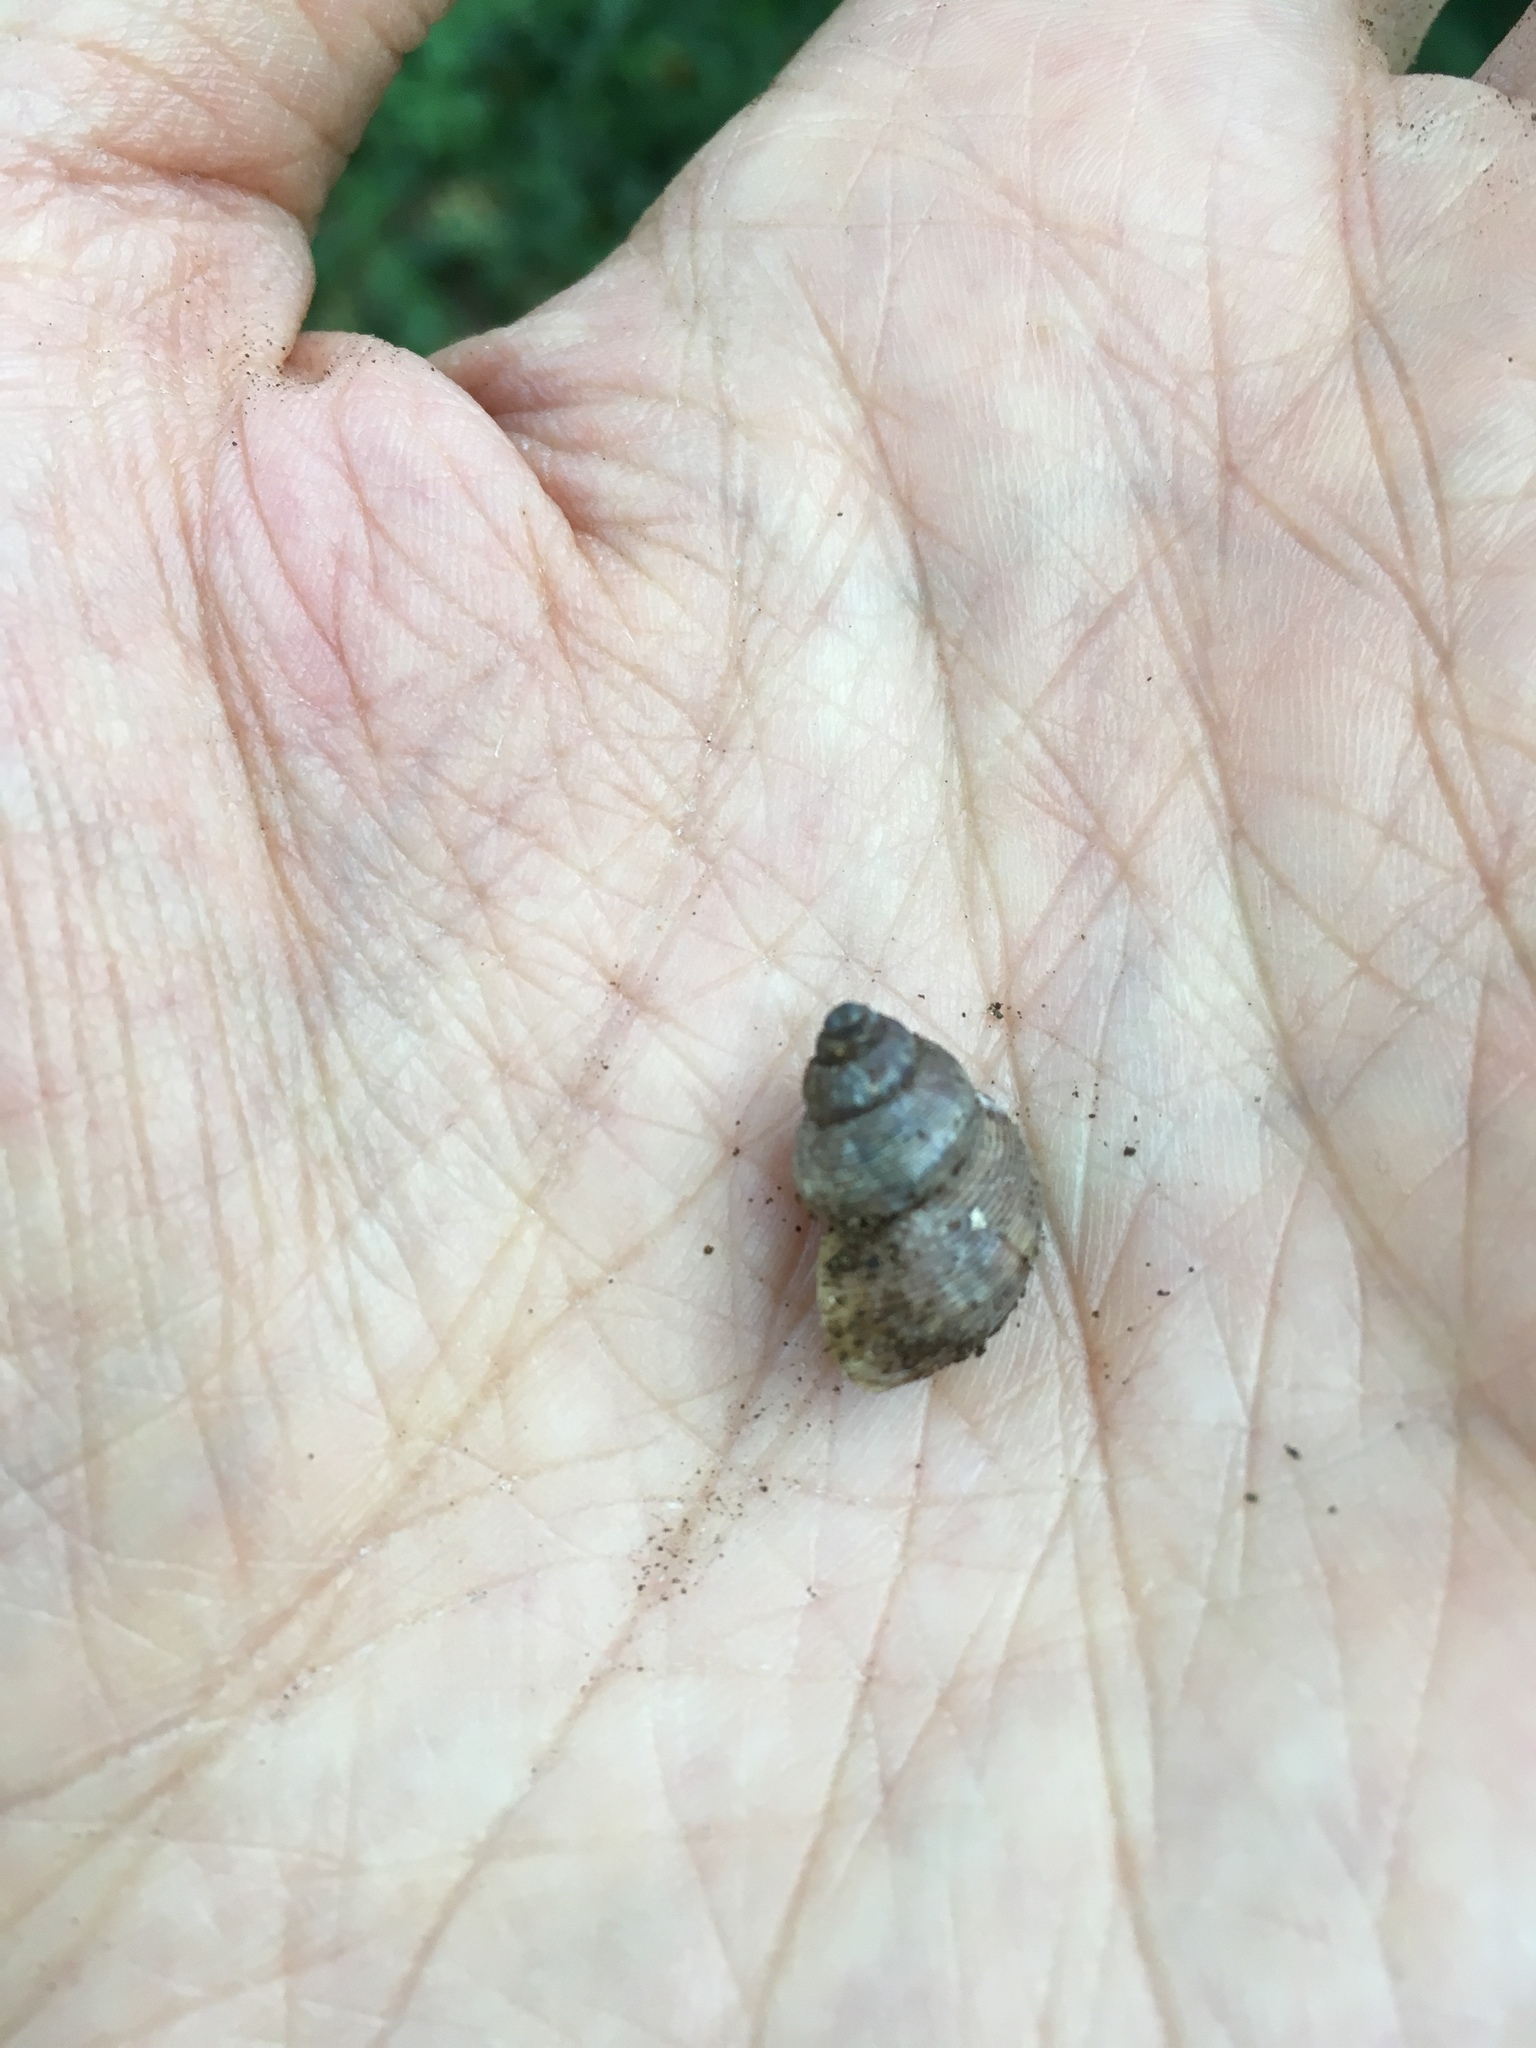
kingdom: Animalia
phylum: Mollusca
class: Gastropoda
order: Littorinimorpha
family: Pomatiidae
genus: Pomatias
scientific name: Pomatias elegans
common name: Red-mouthed snail
